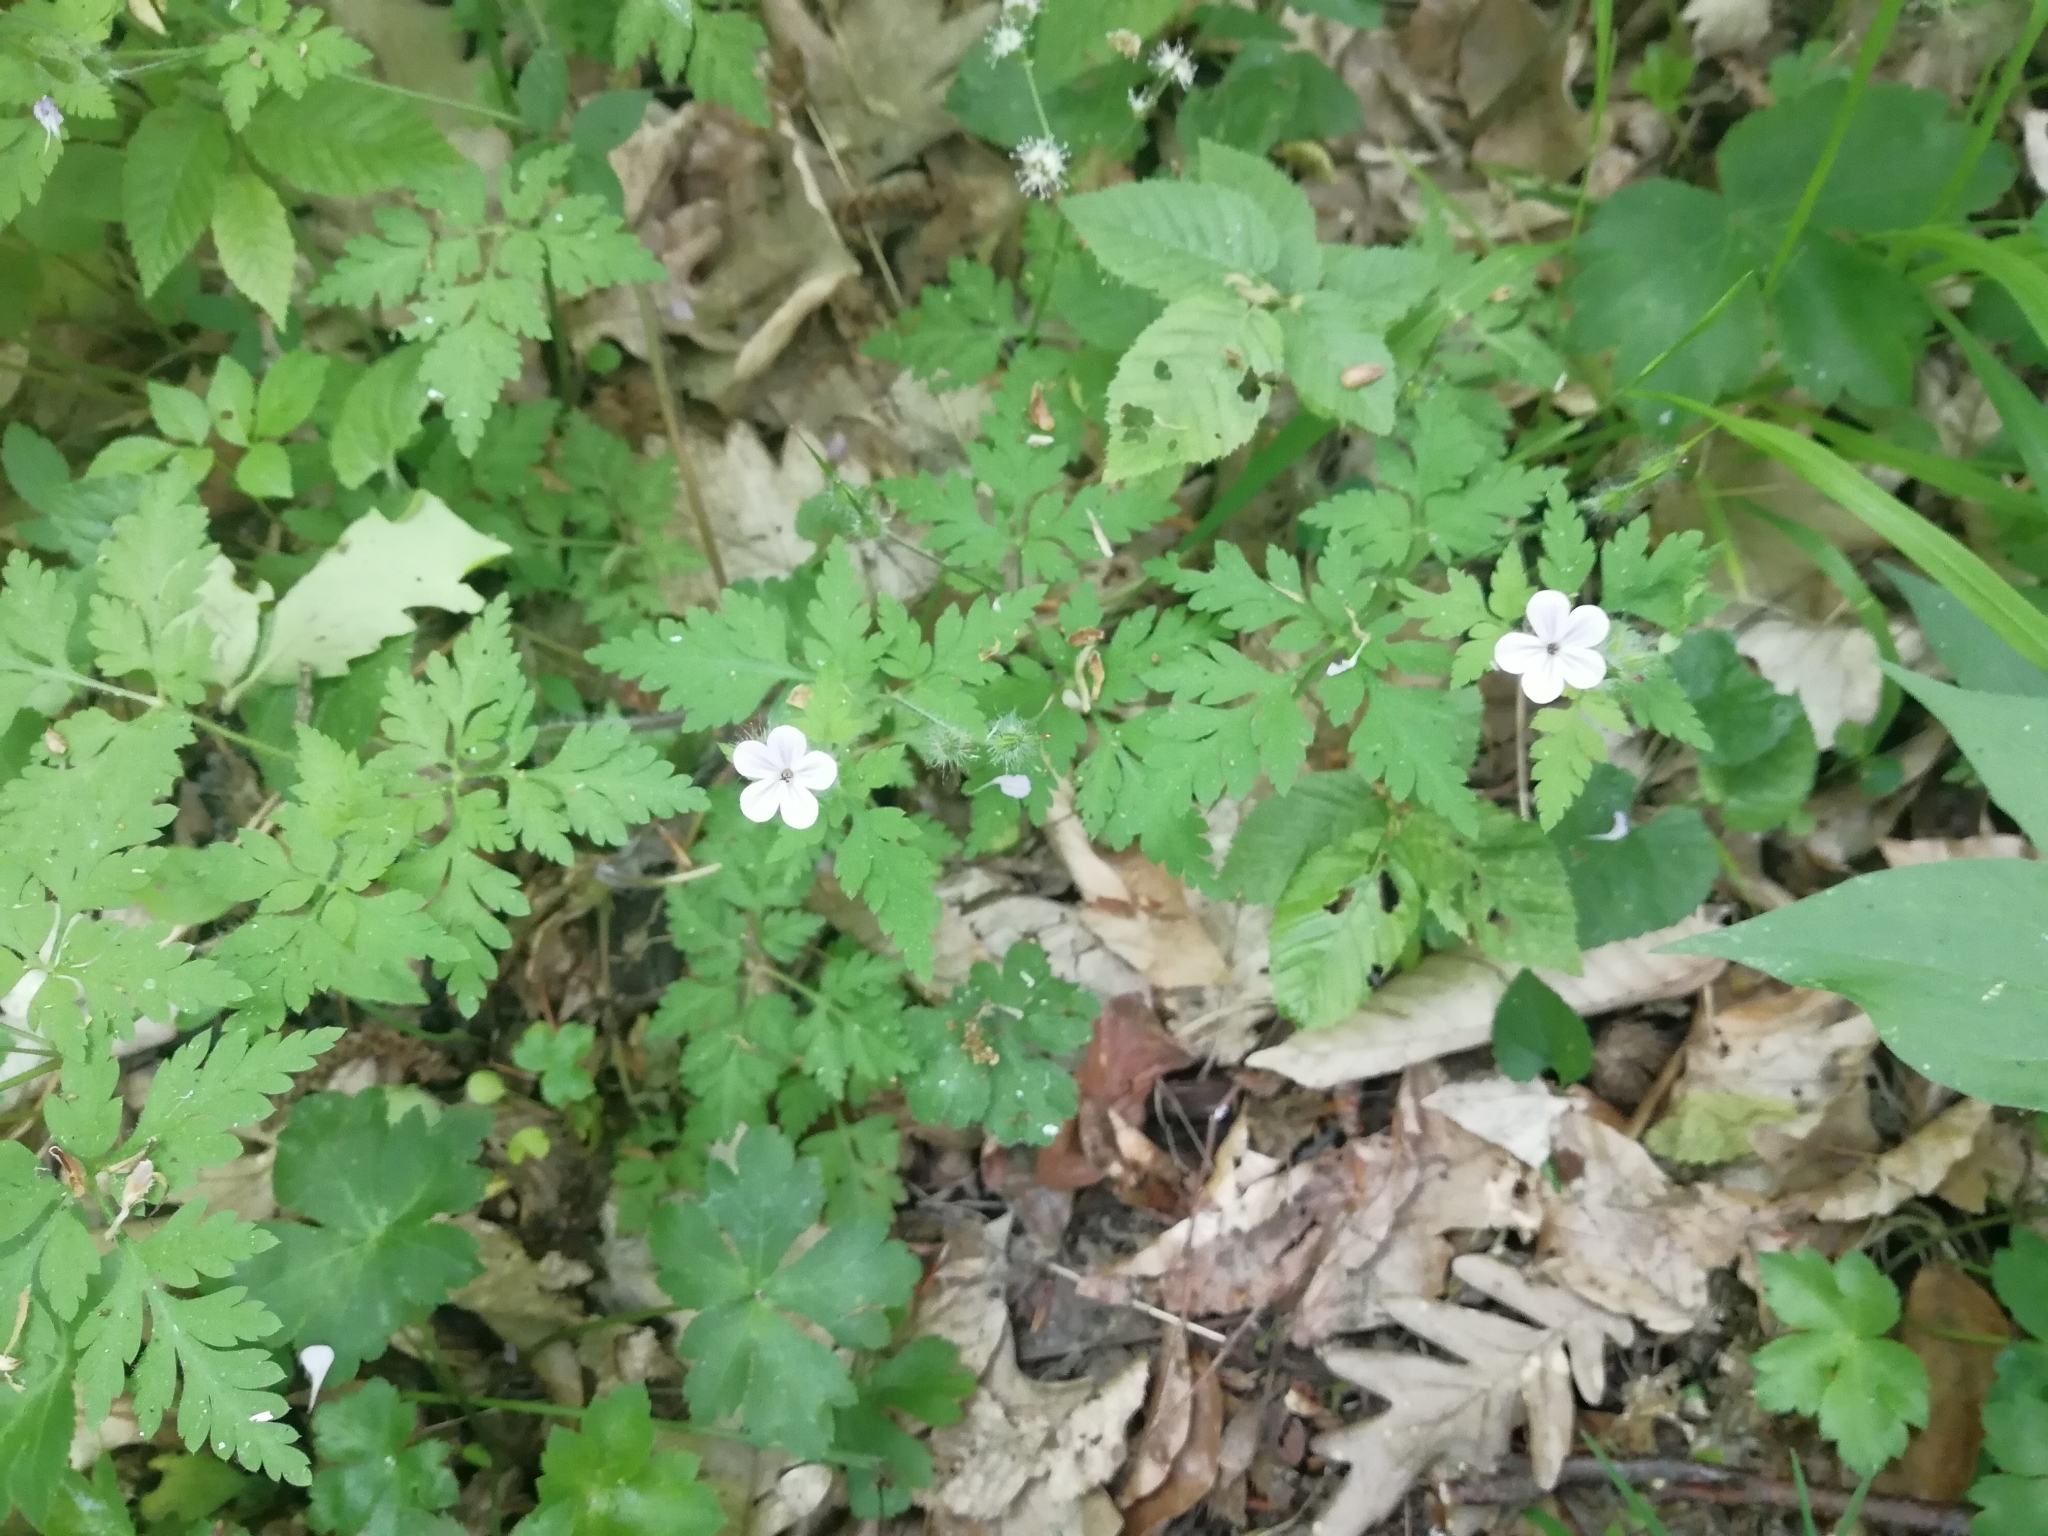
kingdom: Plantae
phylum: Tracheophyta
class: Magnoliopsida
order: Geraniales
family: Geraniaceae
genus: Geranium
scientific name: Geranium robertianum
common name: Herb-robert
